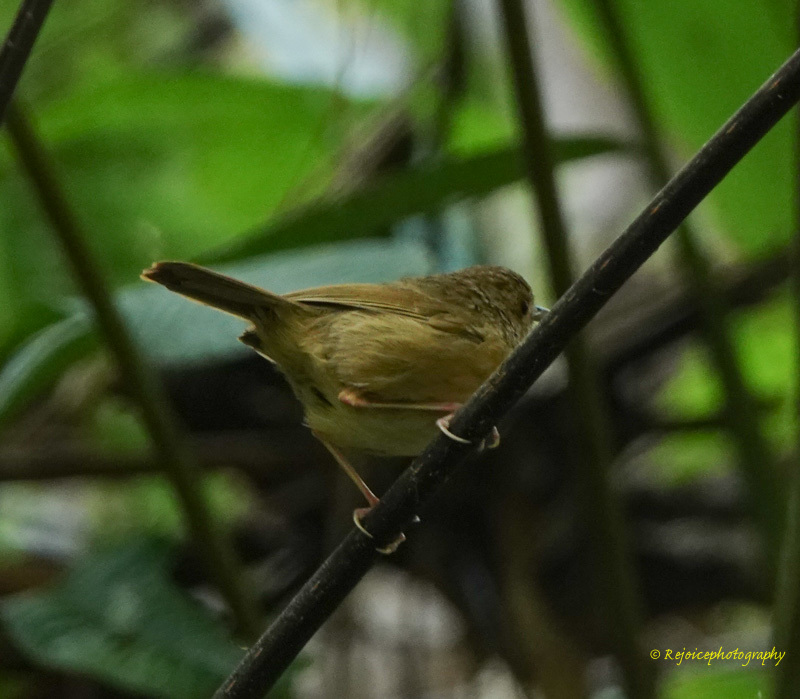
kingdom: Animalia
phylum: Chordata
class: Aves
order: Passeriformes
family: Pellorneidae
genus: Pellorneum
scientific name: Pellorneum tickelli
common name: Buff-breasted babbler
